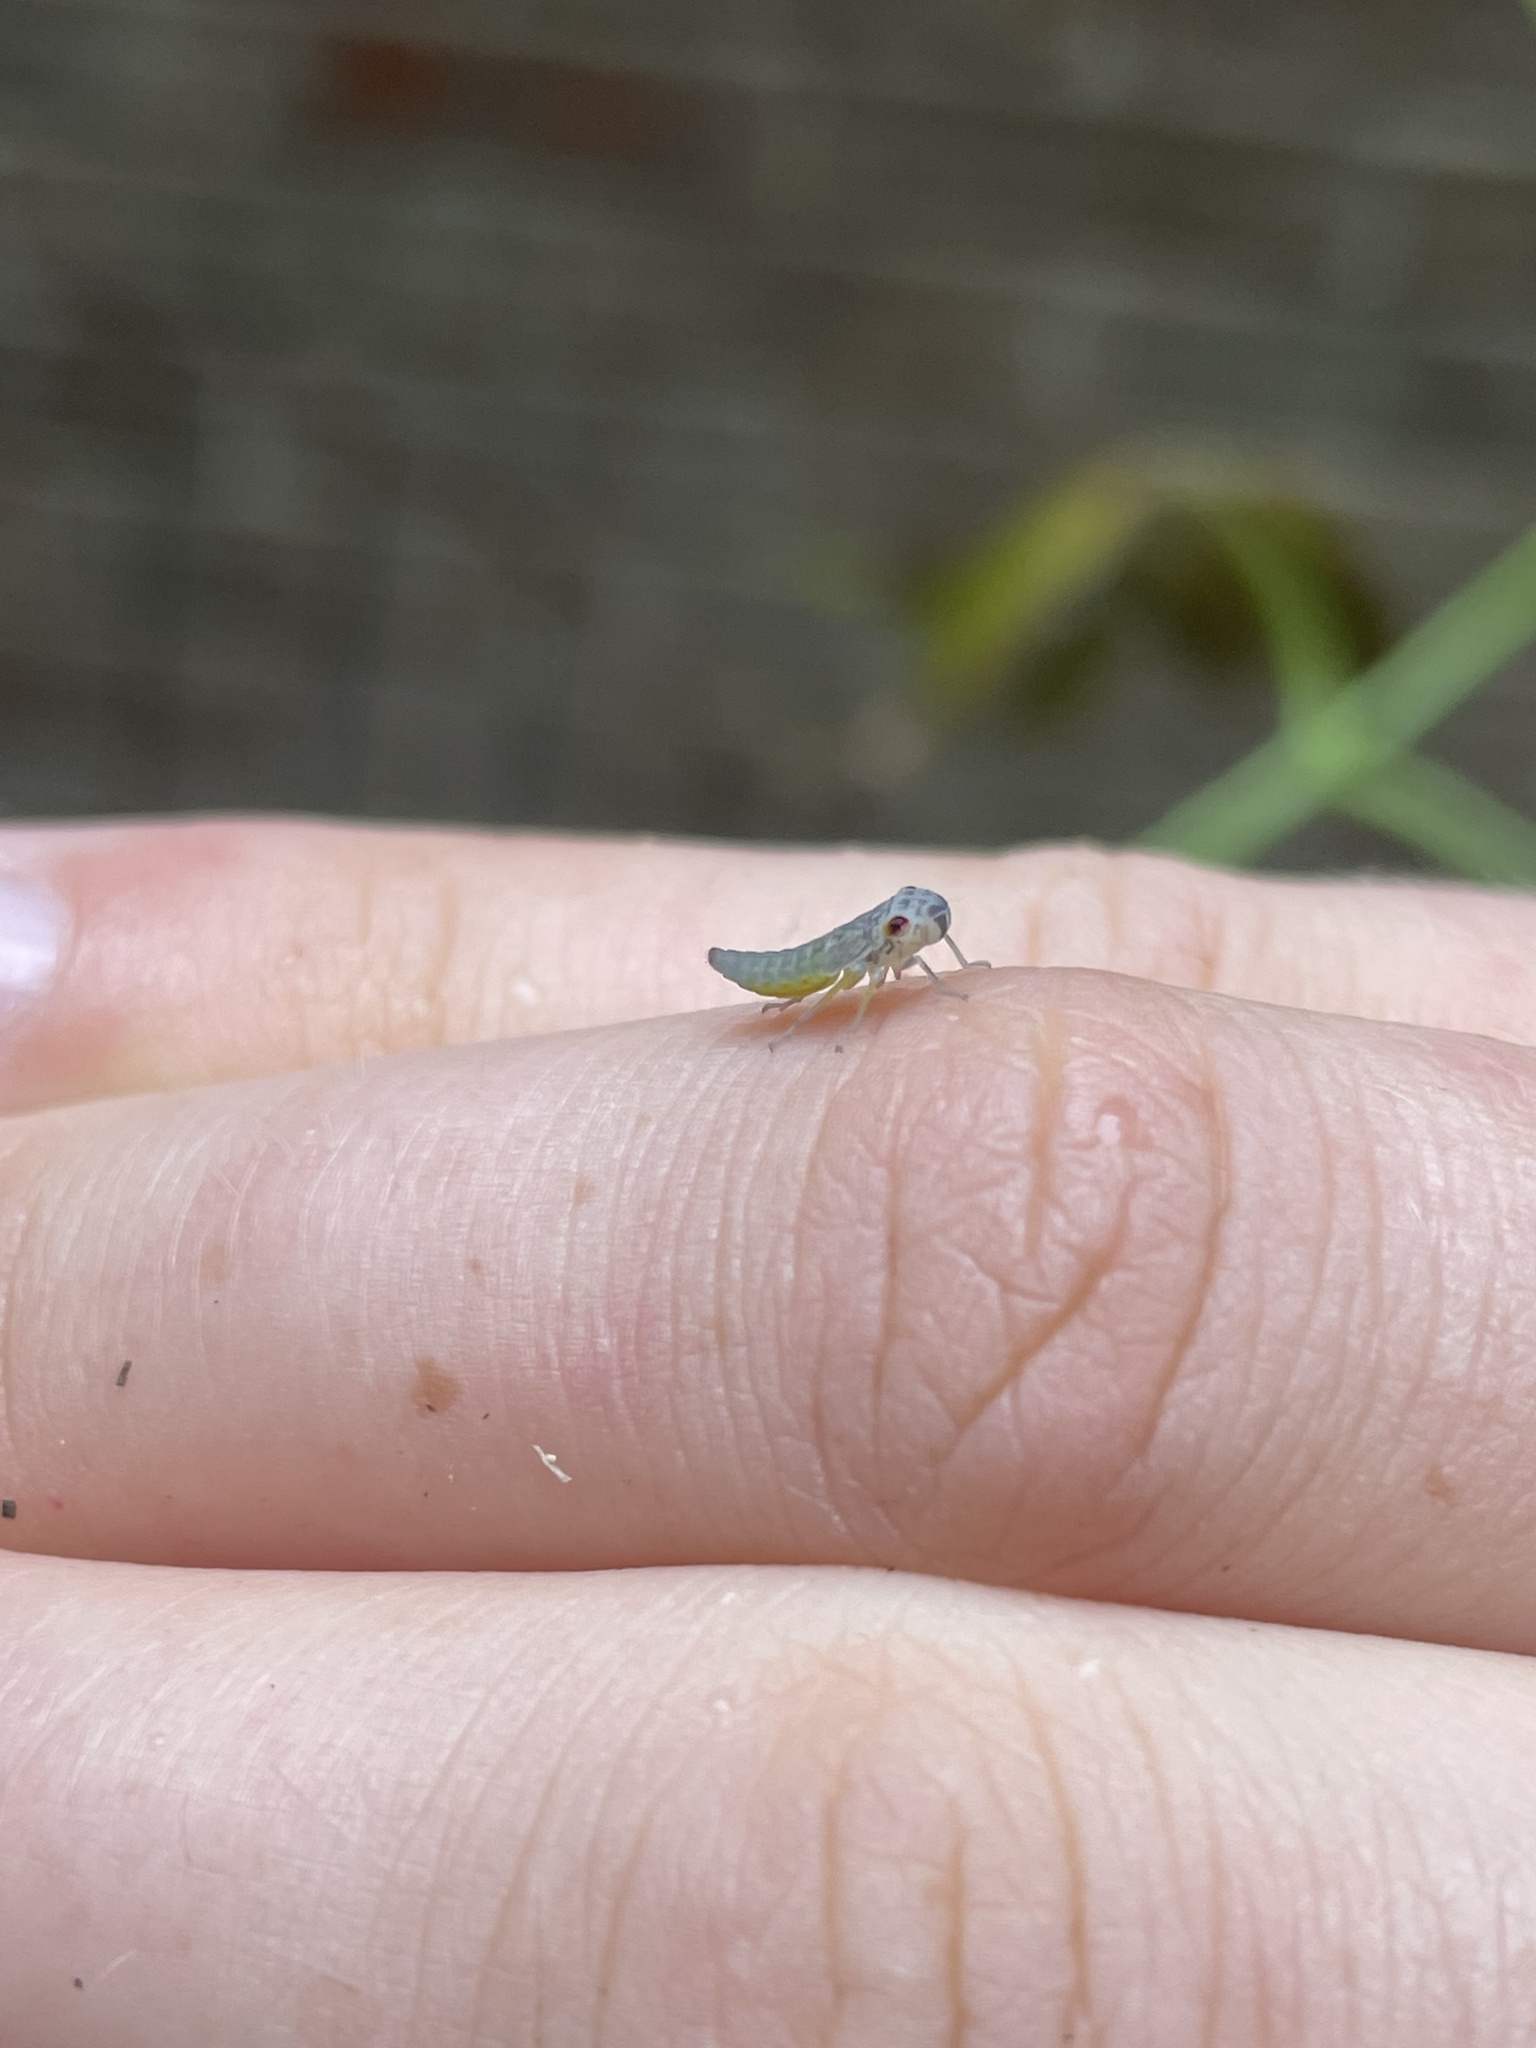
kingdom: Animalia
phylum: Arthropoda
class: Insecta
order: Hemiptera
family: Cicadellidae
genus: Oncometopia
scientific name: Oncometopia orbona
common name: Broad-headed sharpshooter
